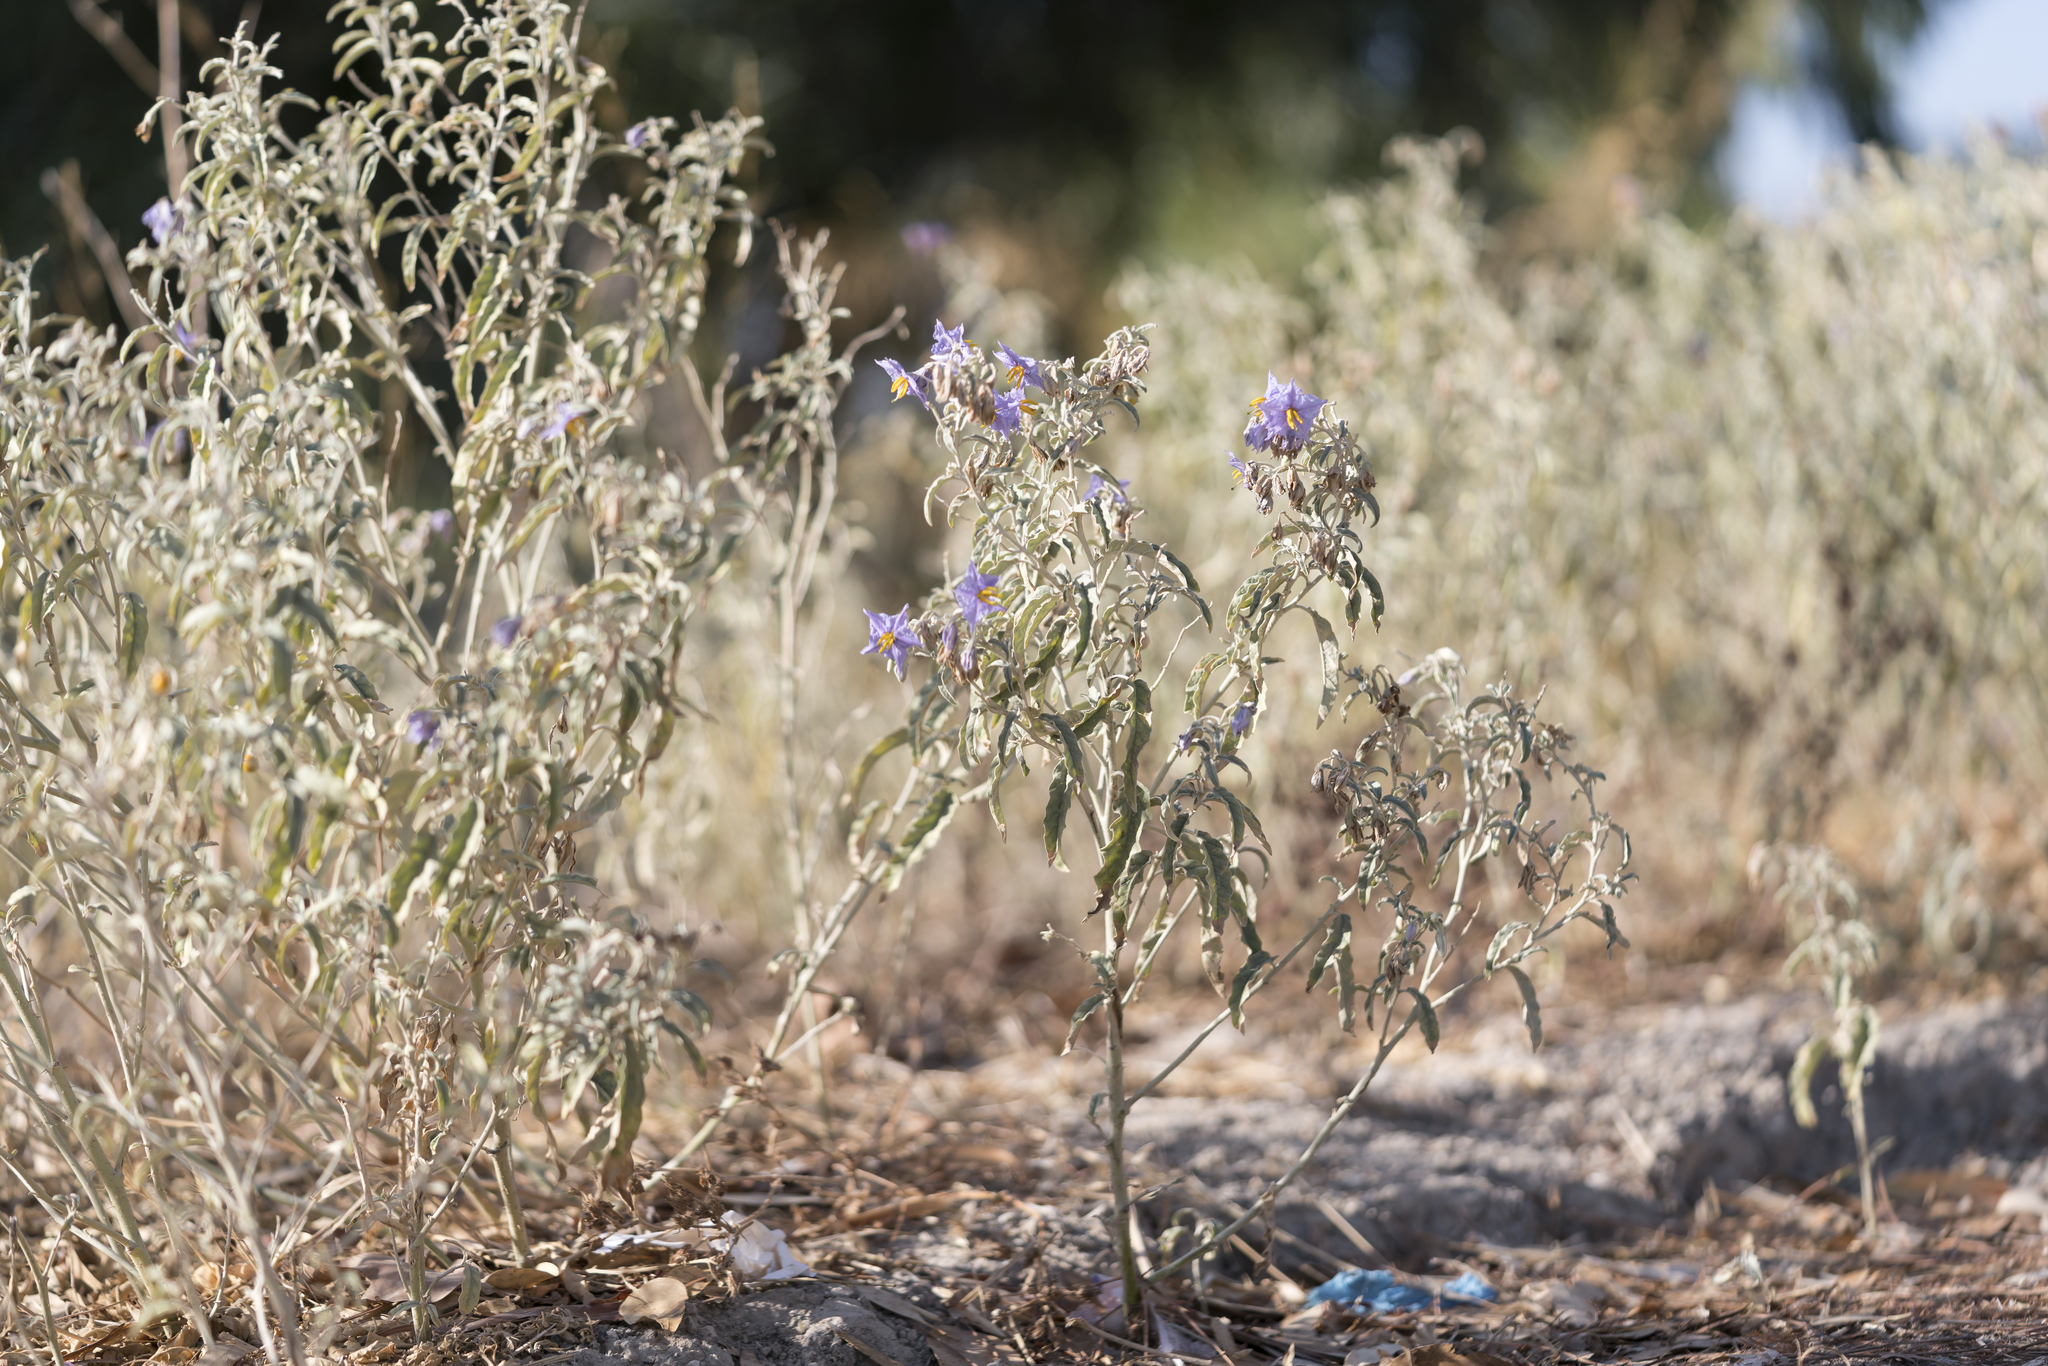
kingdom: Plantae
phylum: Tracheophyta
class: Magnoliopsida
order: Solanales
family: Solanaceae
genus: Solanum
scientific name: Solanum elaeagnifolium
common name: Silverleaf nightshade
